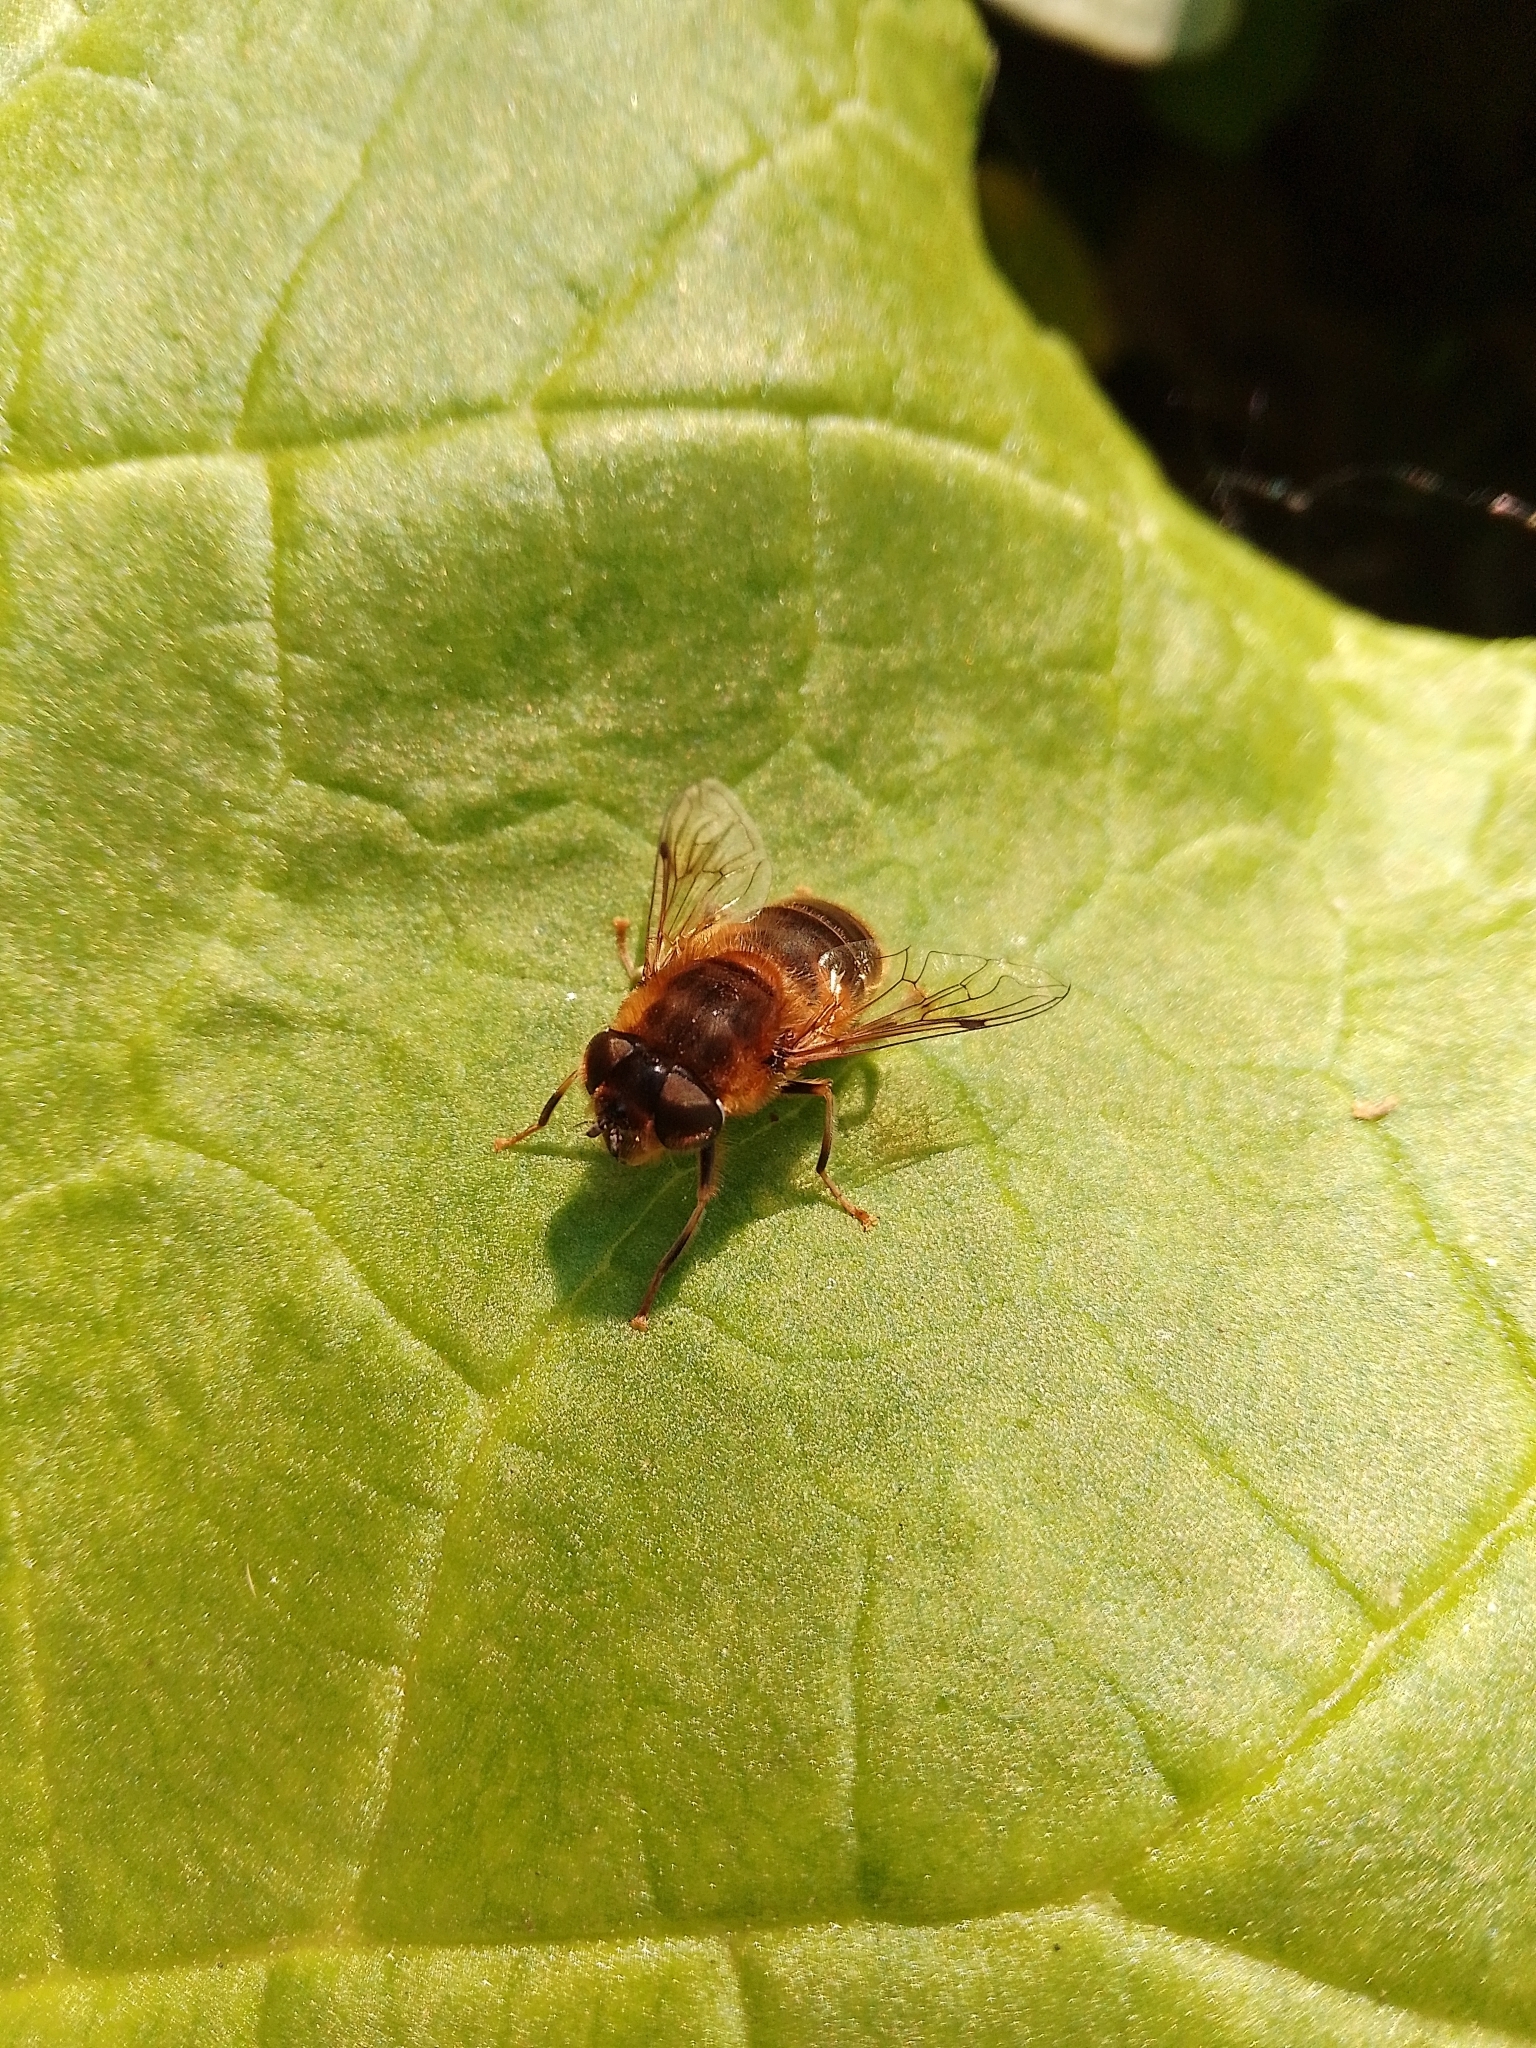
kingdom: Animalia
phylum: Arthropoda
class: Insecta
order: Diptera
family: Syrphidae
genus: Eristalis
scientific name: Eristalis pertinax
